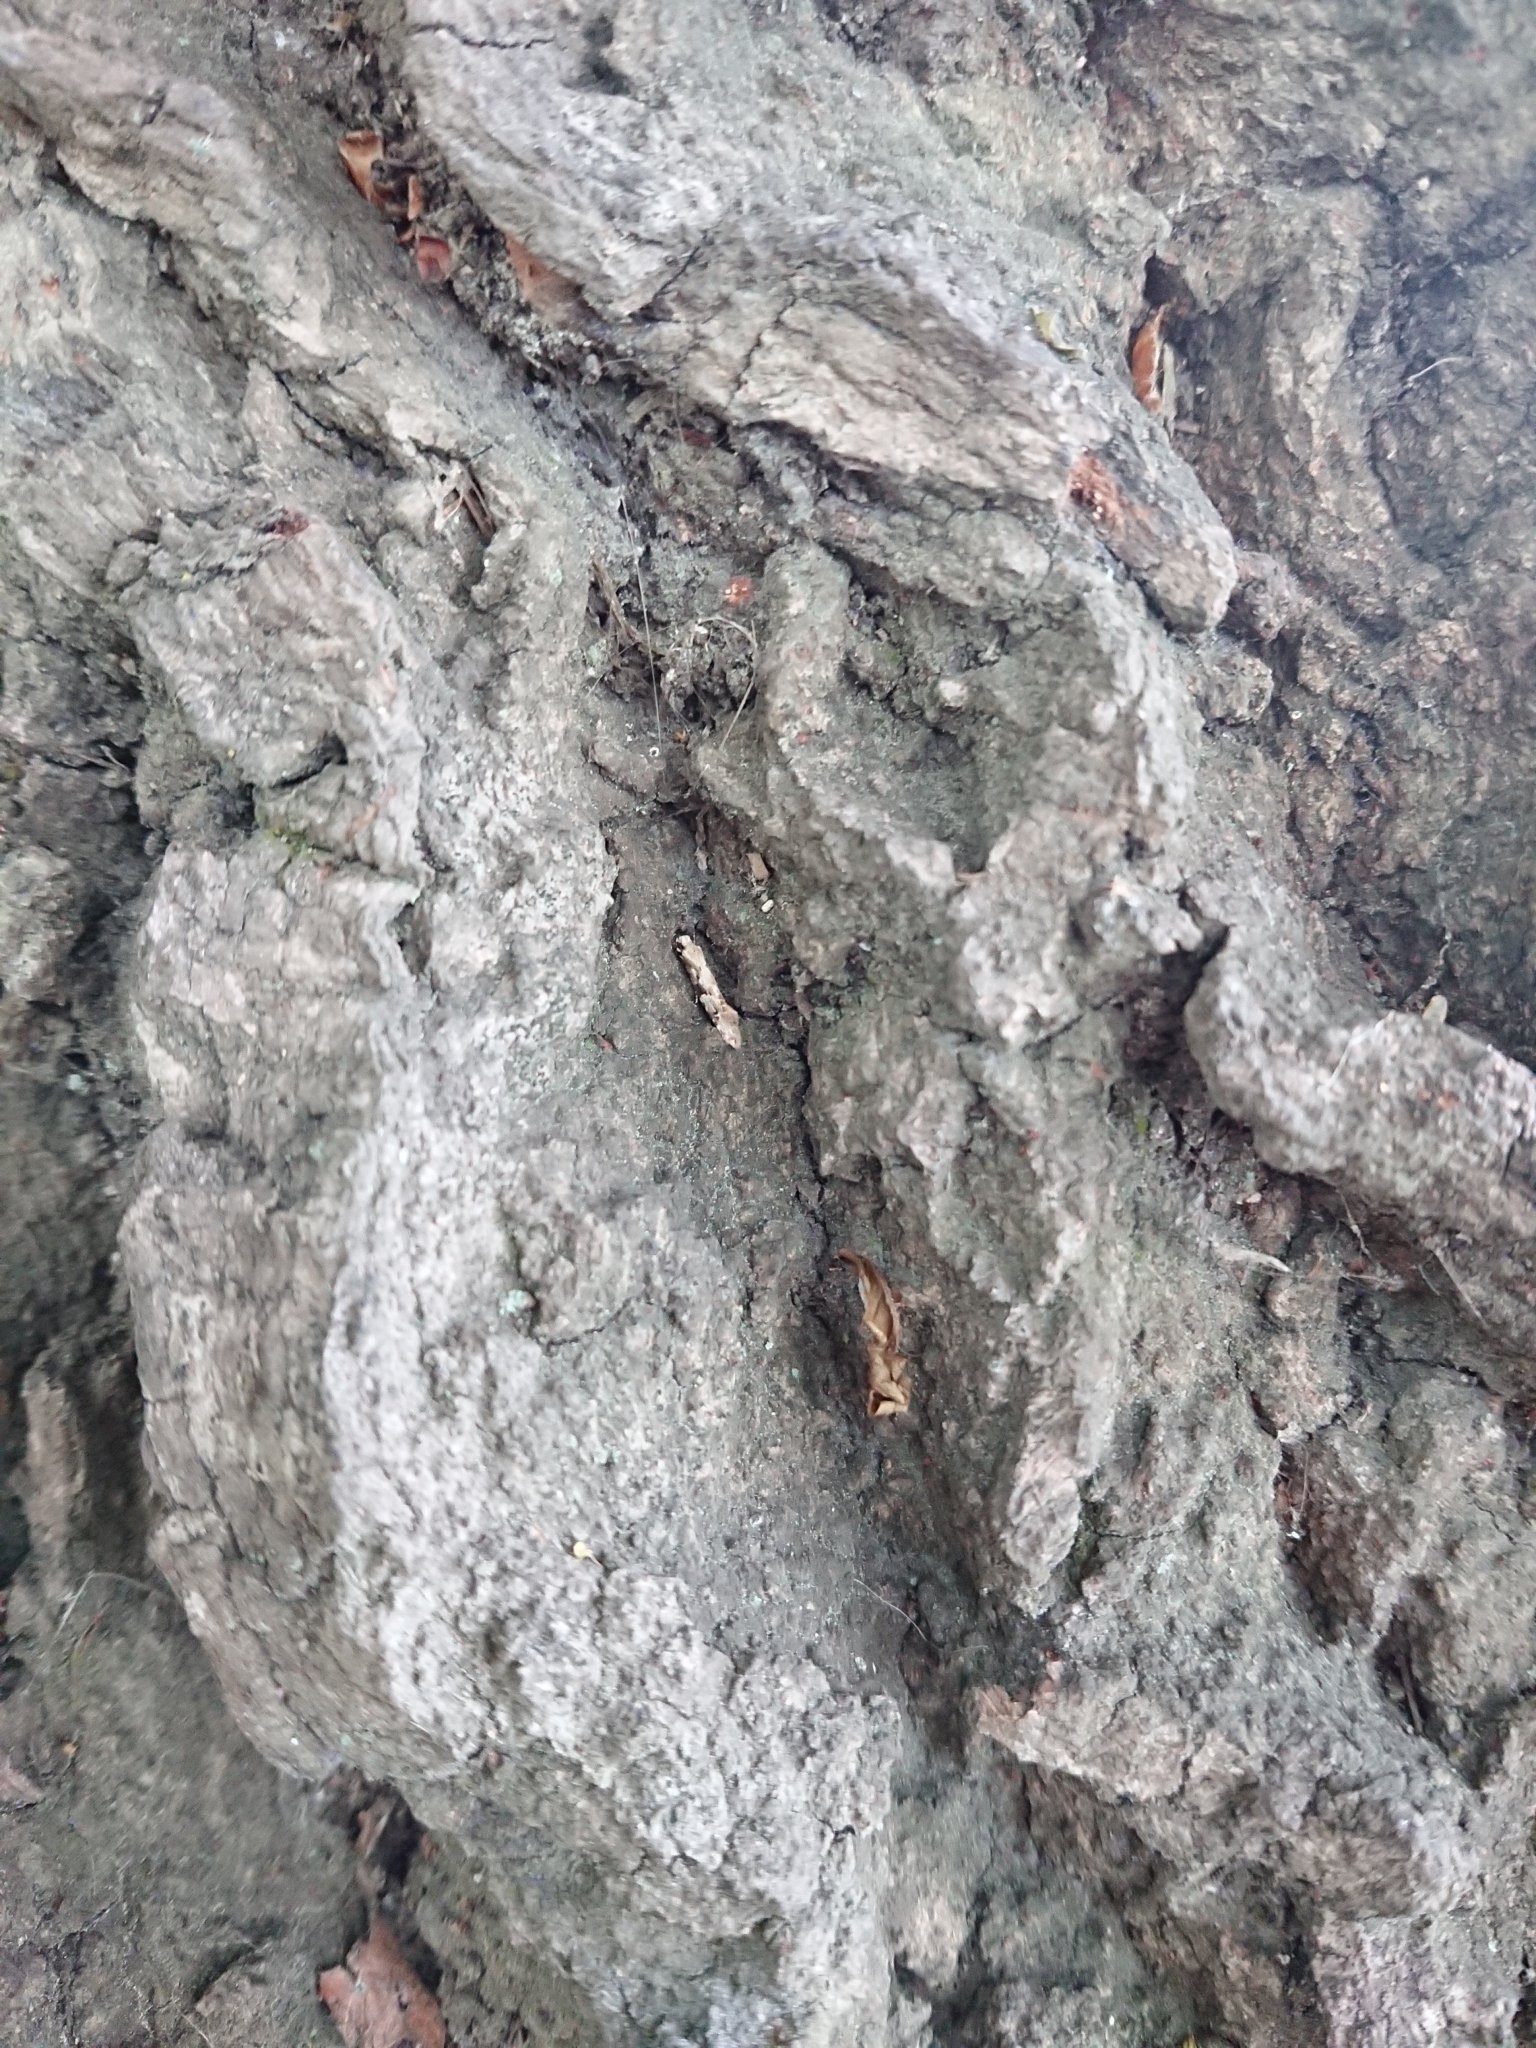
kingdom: Animalia
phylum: Arthropoda
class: Insecta
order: Lepidoptera
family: Tineidae
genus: Crypsitricha
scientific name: Crypsitricha mesotypa
